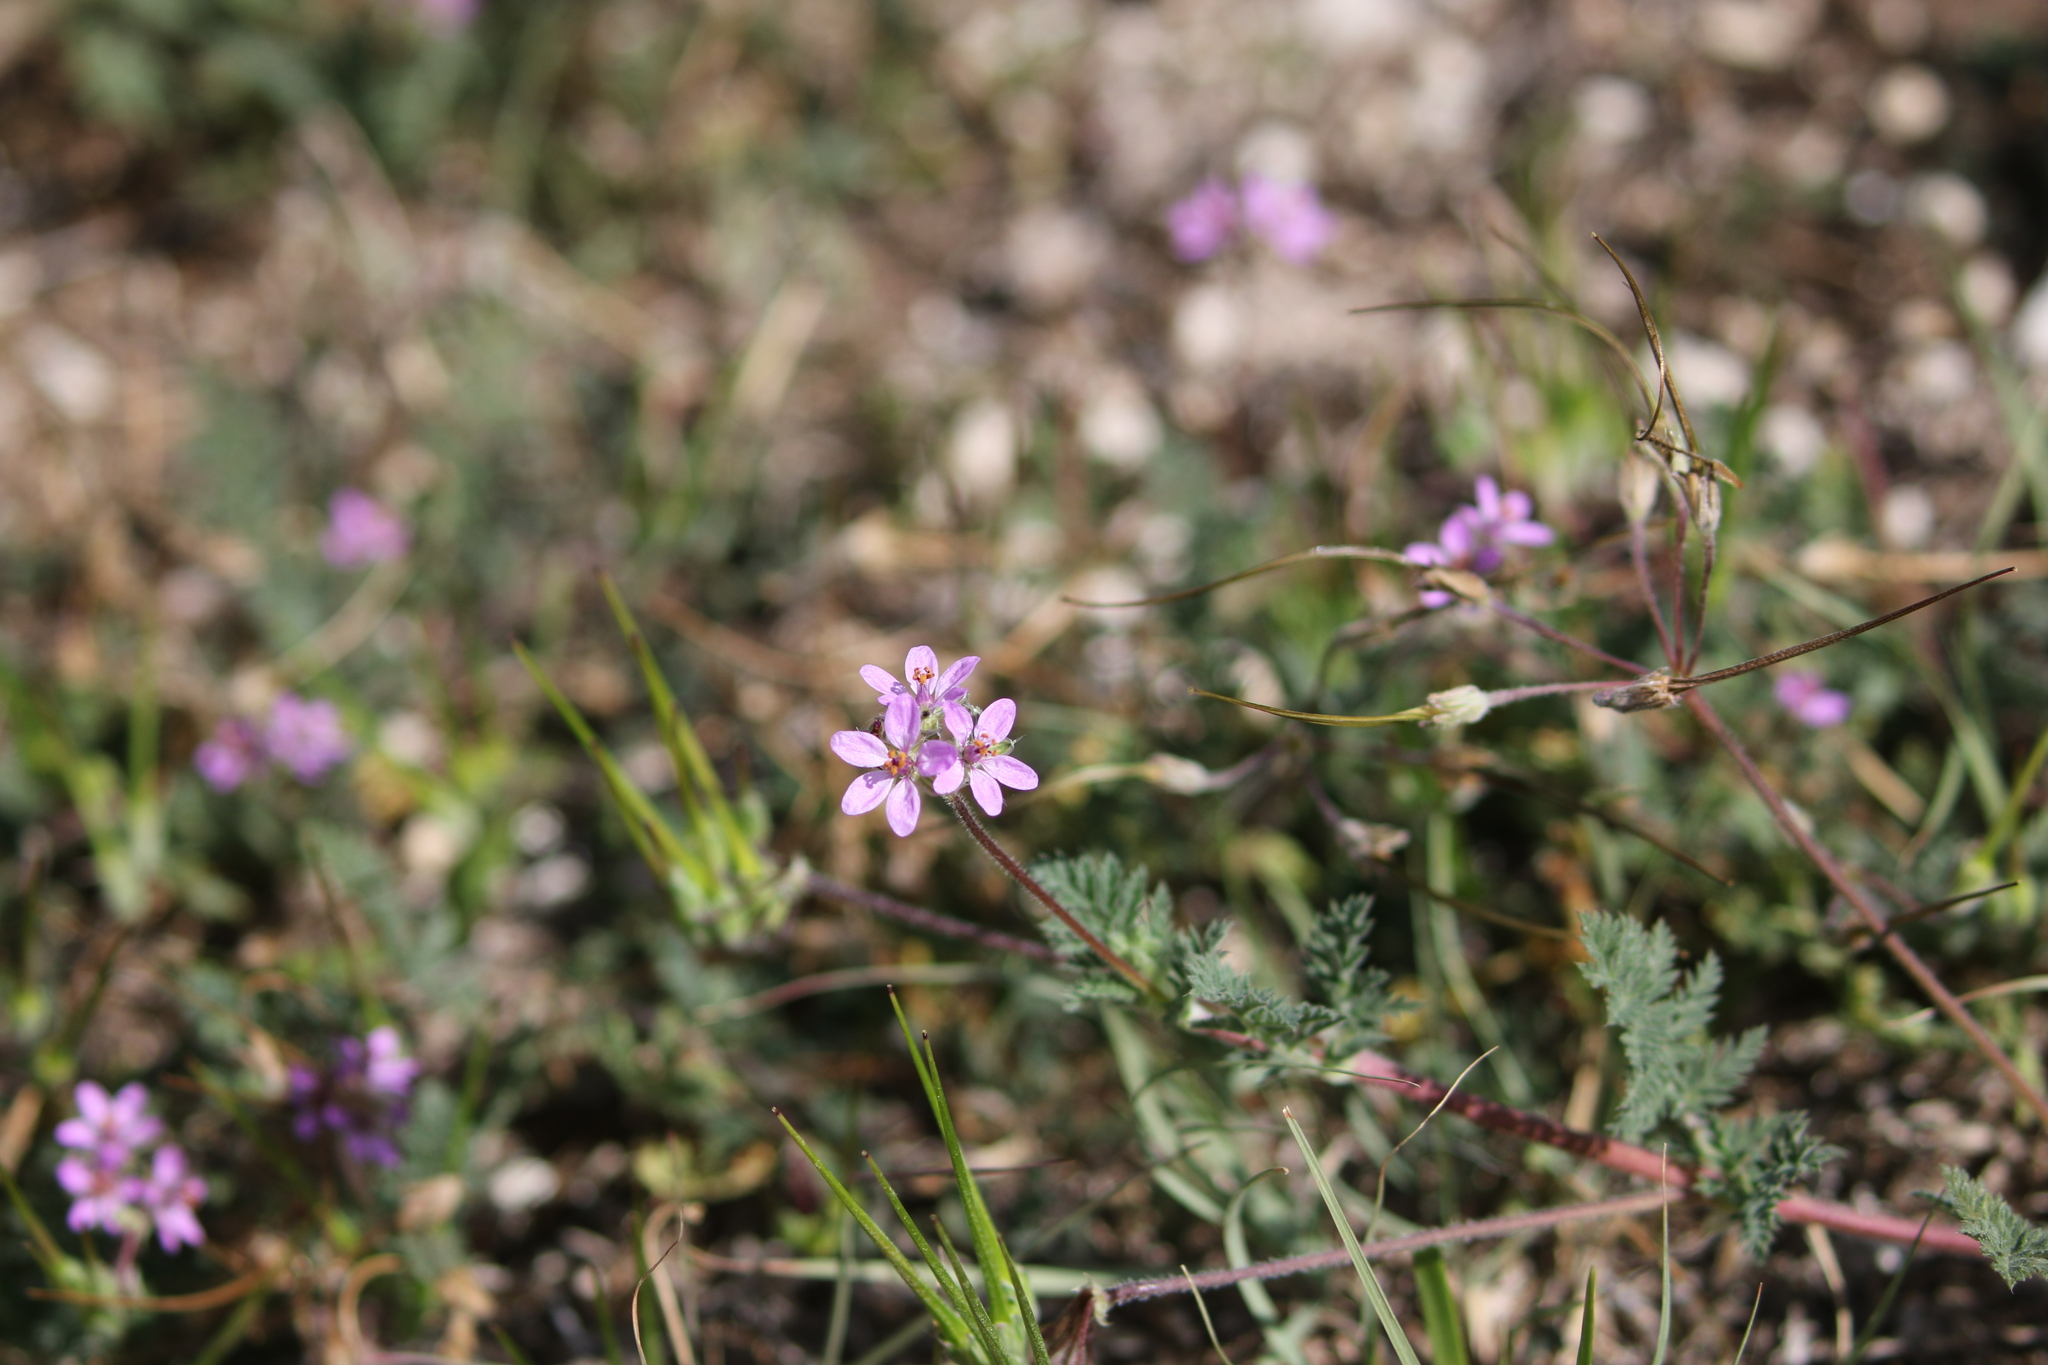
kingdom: Plantae
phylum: Tracheophyta
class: Magnoliopsida
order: Geraniales
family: Geraniaceae
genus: Erodium
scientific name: Erodium cicutarium
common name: Common stork's-bill
